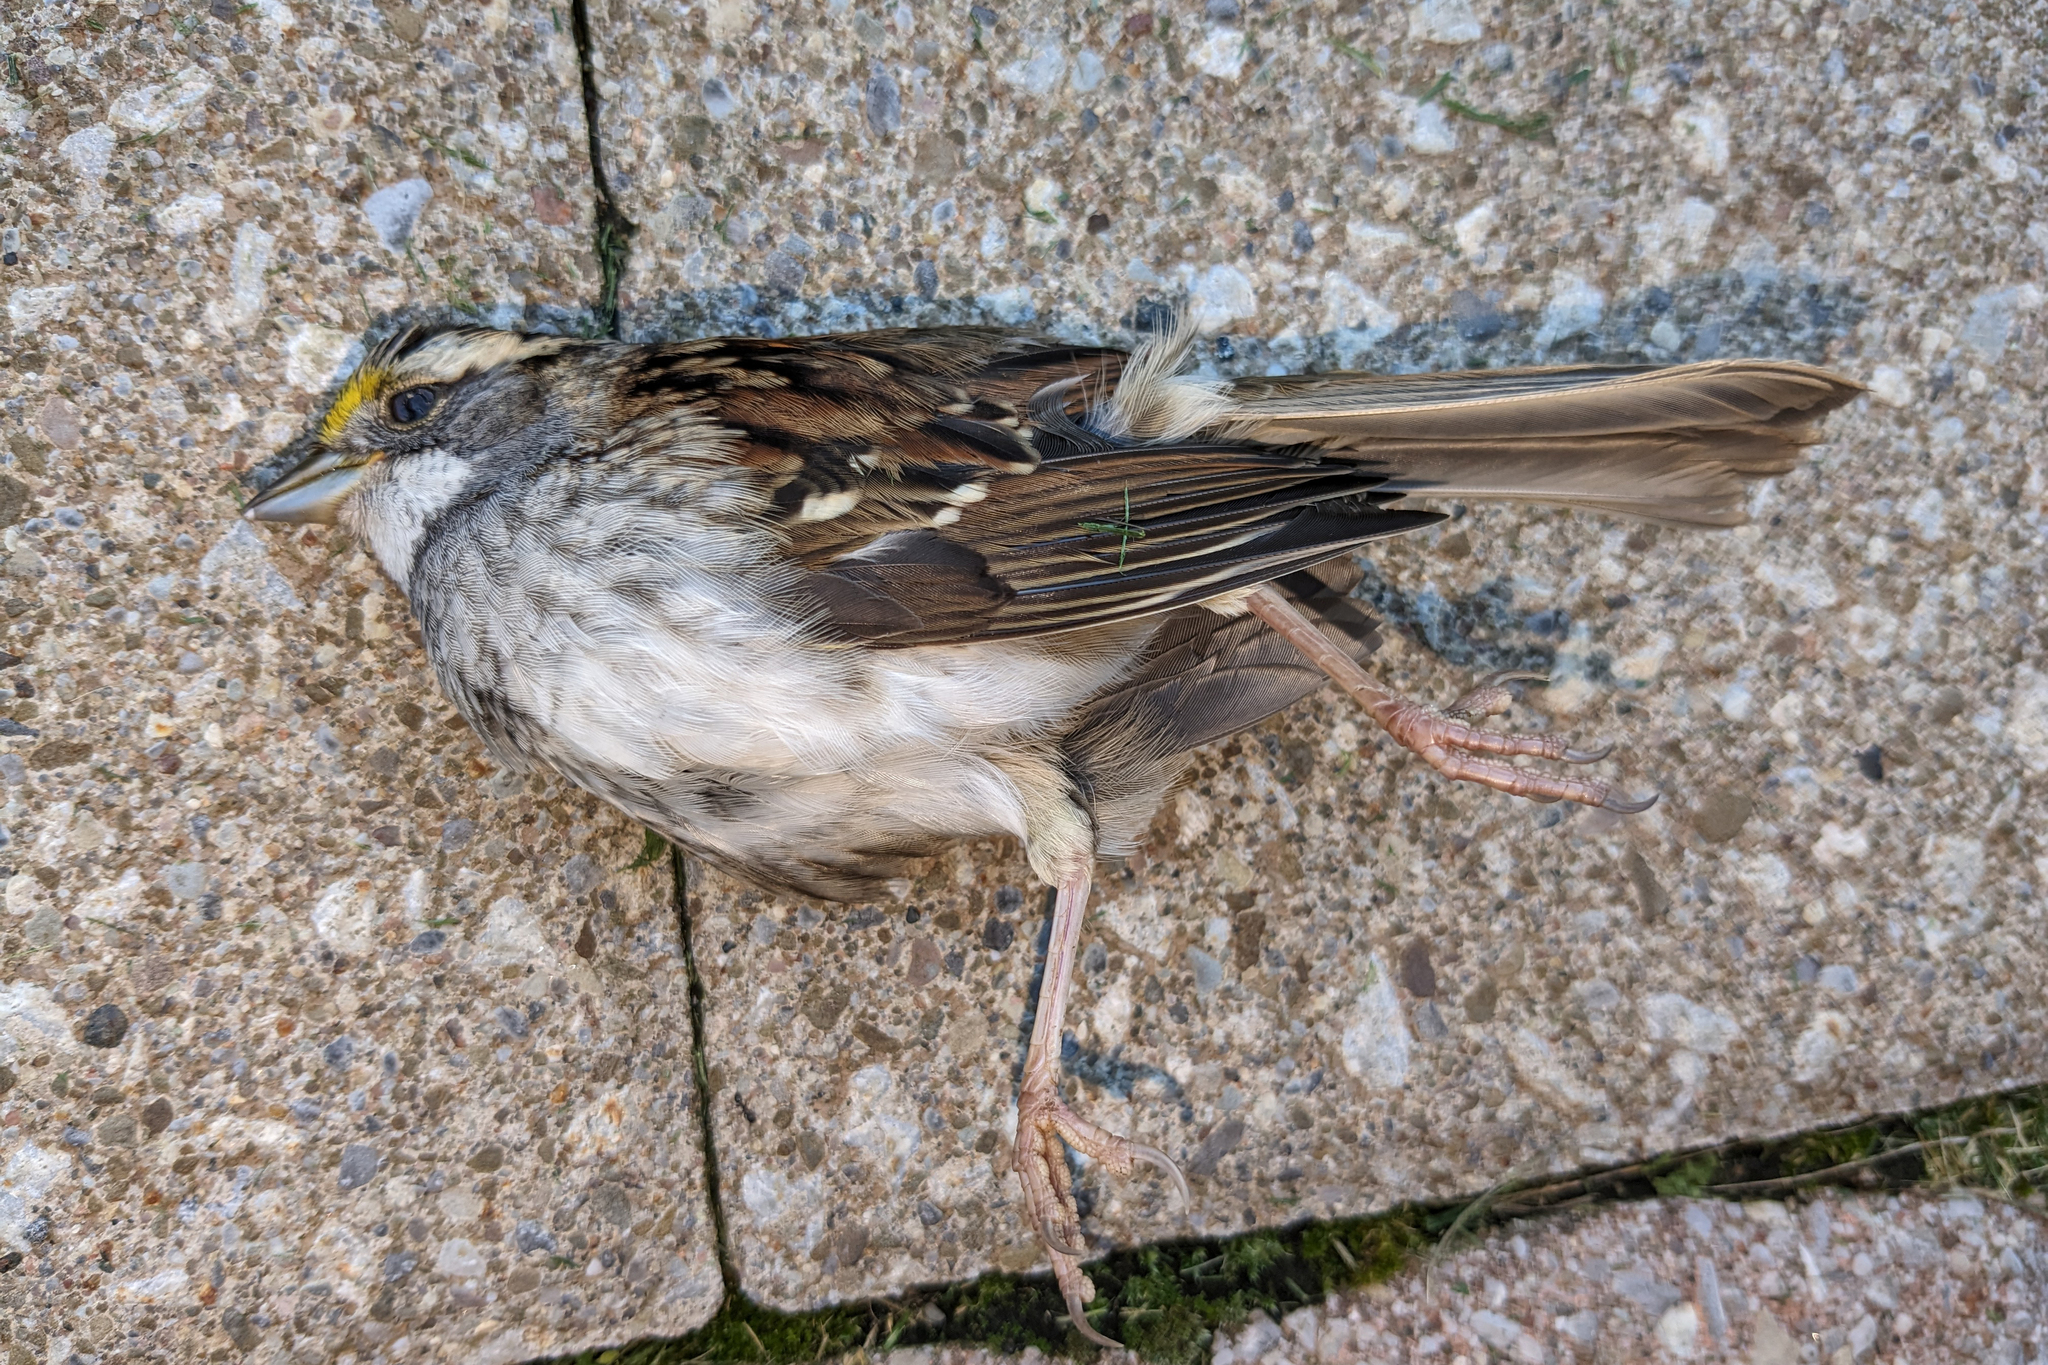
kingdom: Animalia
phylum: Chordata
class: Aves
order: Passeriformes
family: Passerellidae
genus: Zonotrichia
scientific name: Zonotrichia albicollis
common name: White-throated sparrow
